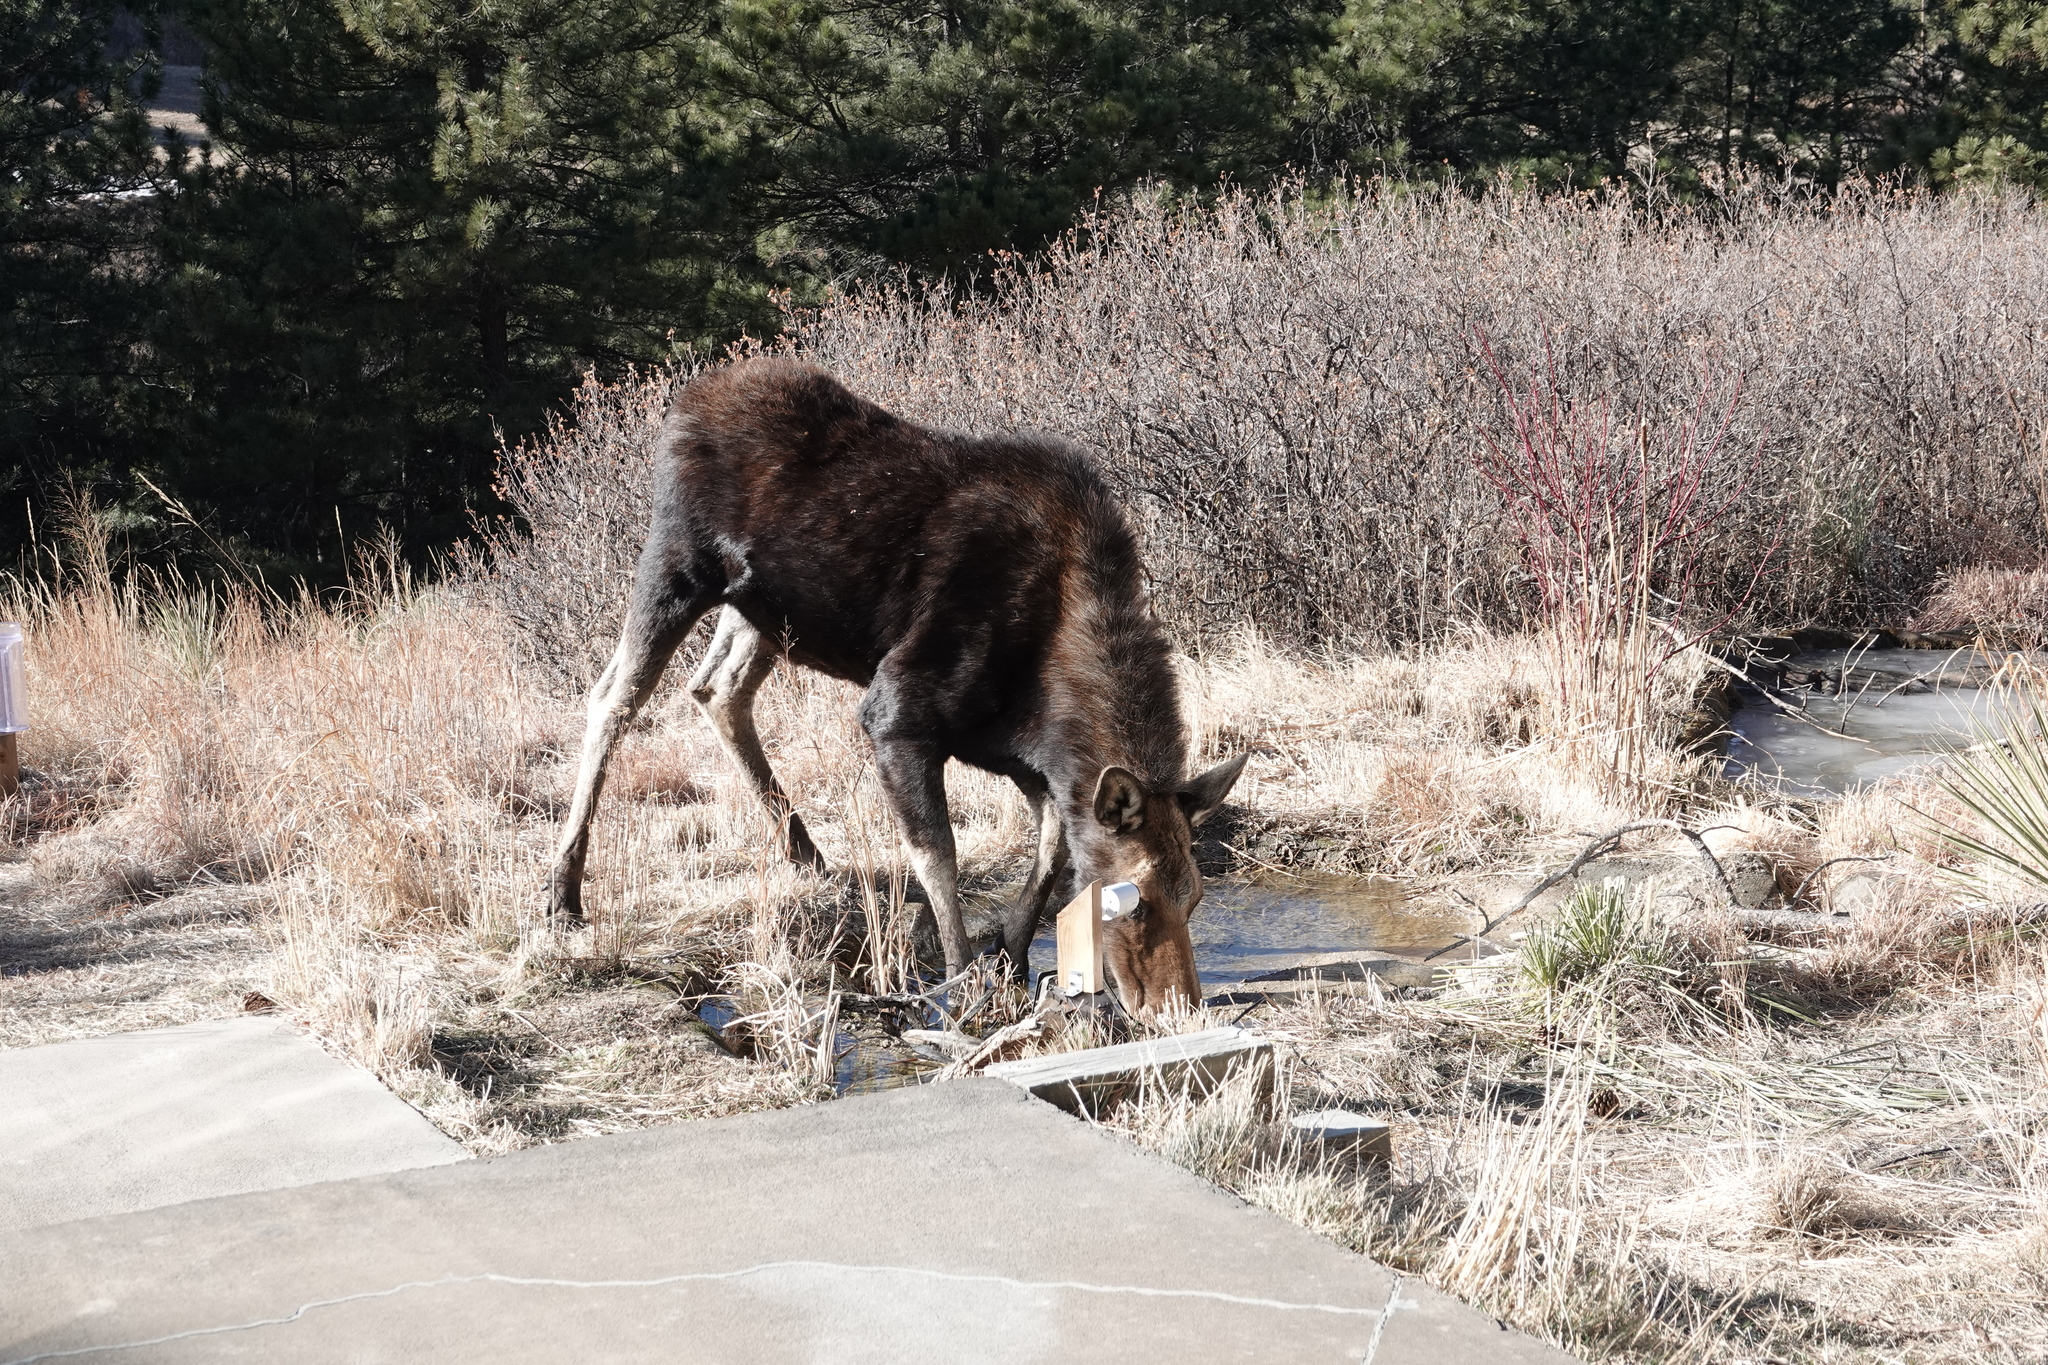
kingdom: Animalia
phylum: Chordata
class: Mammalia
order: Artiodactyla
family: Cervidae
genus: Alces
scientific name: Alces alces
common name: Moose
